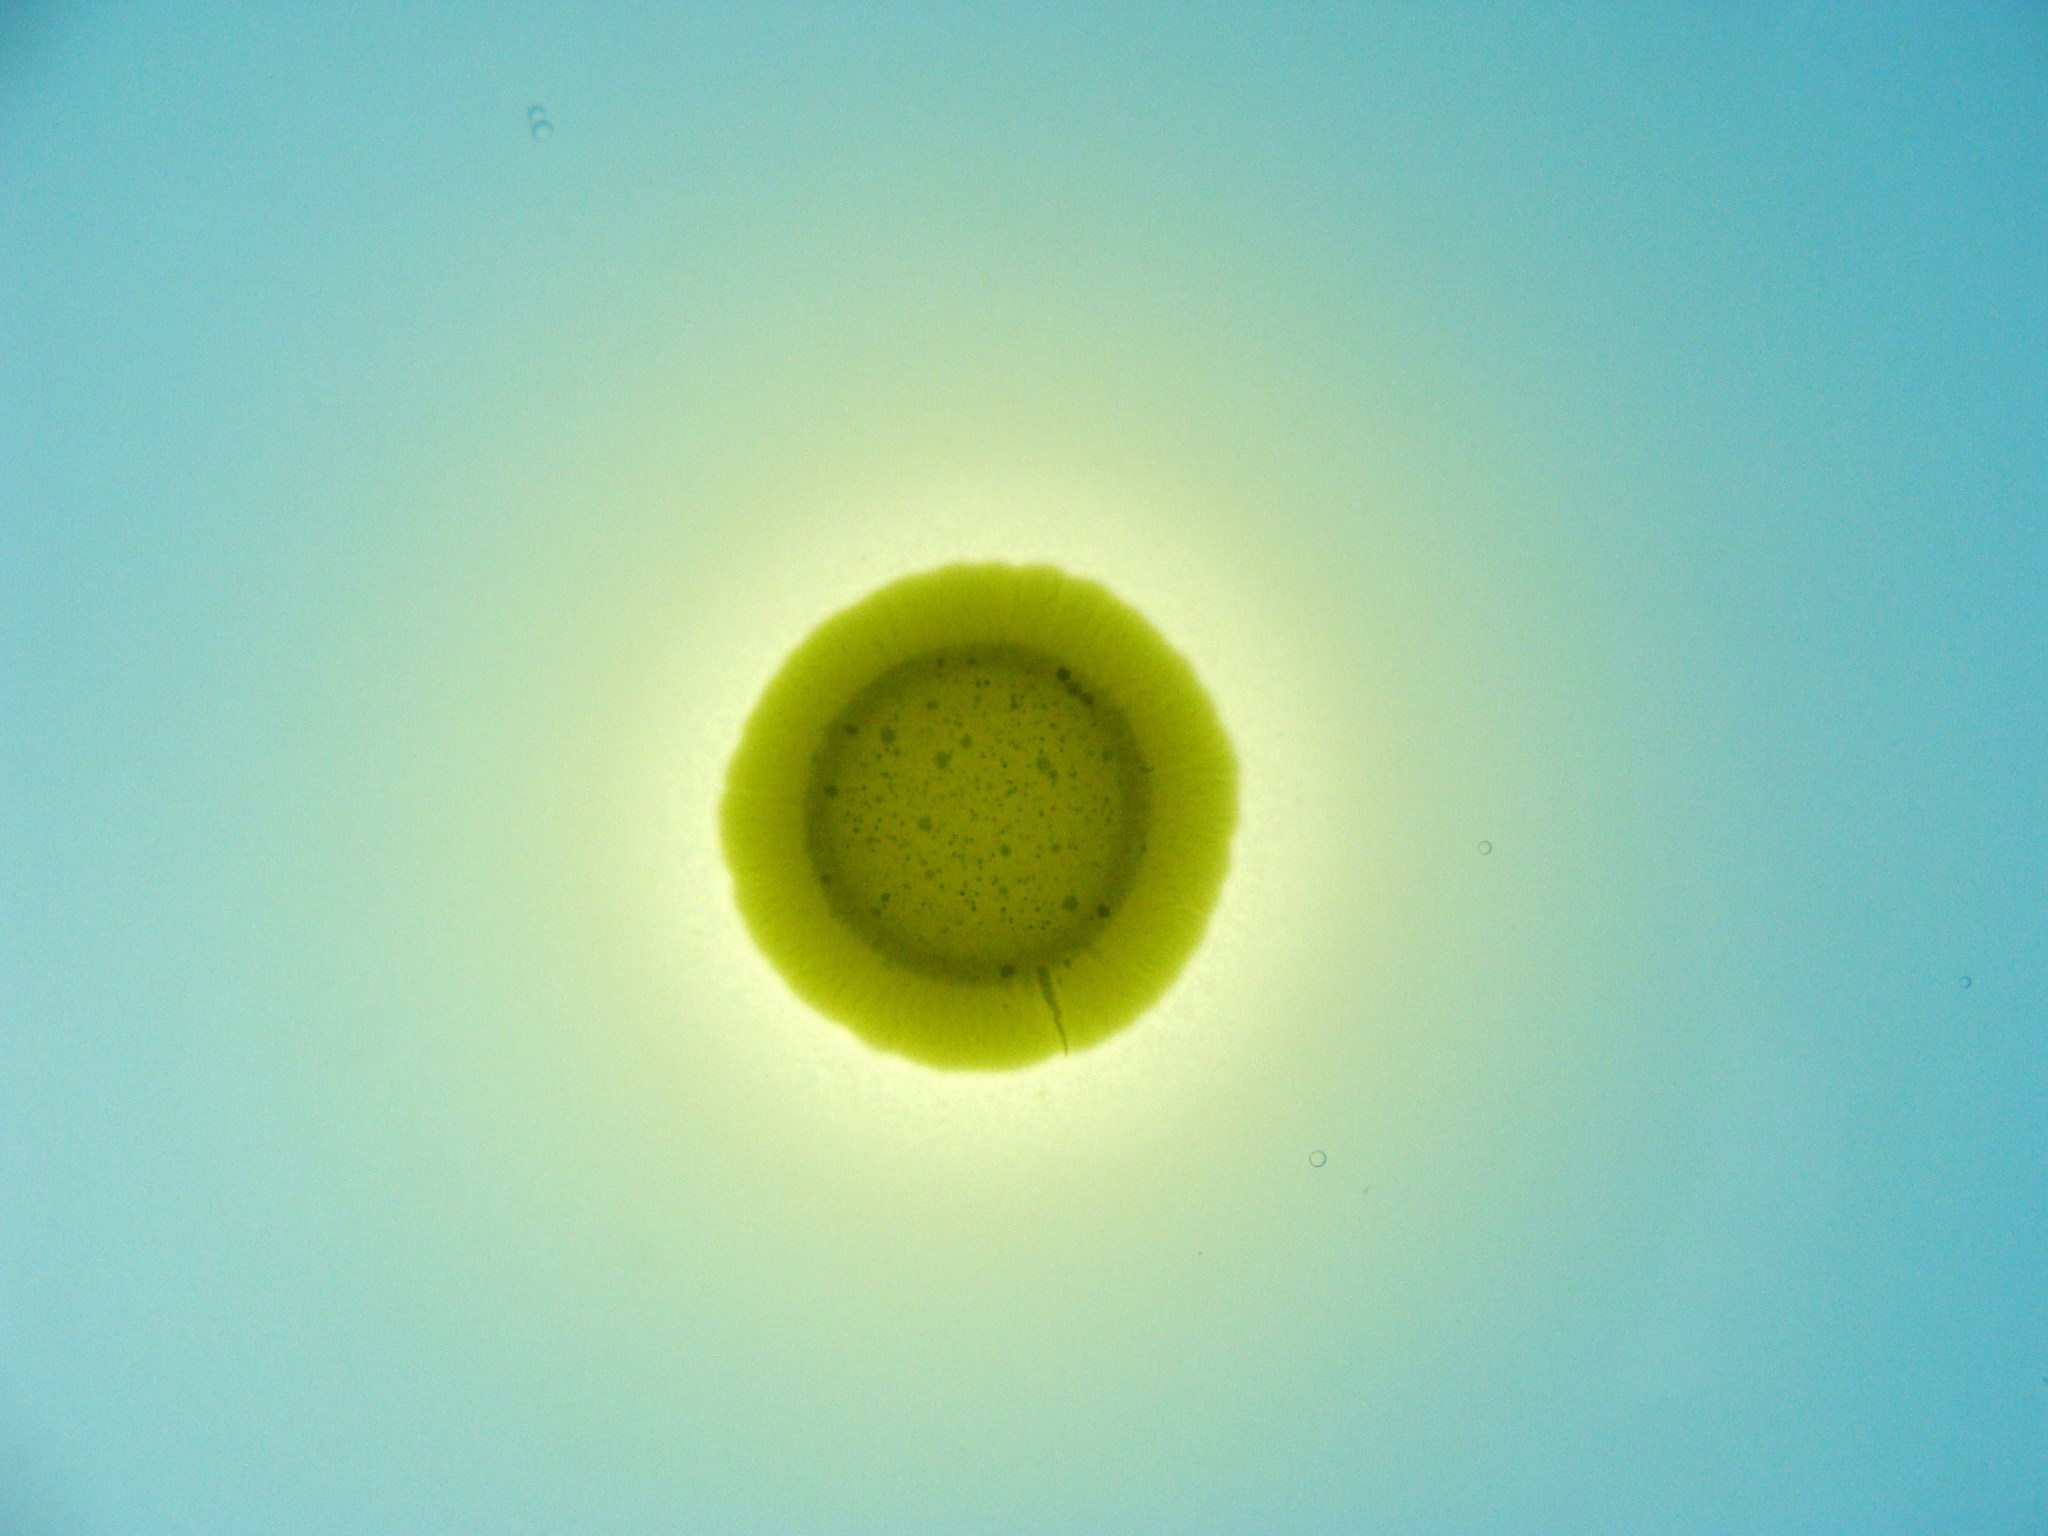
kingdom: Bacteria
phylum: Proteobacteria
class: Gammaproteobacteria
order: Burkholderiales
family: Chromobacteriaceae
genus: Chromobacterium
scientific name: Chromobacterium violaceum
